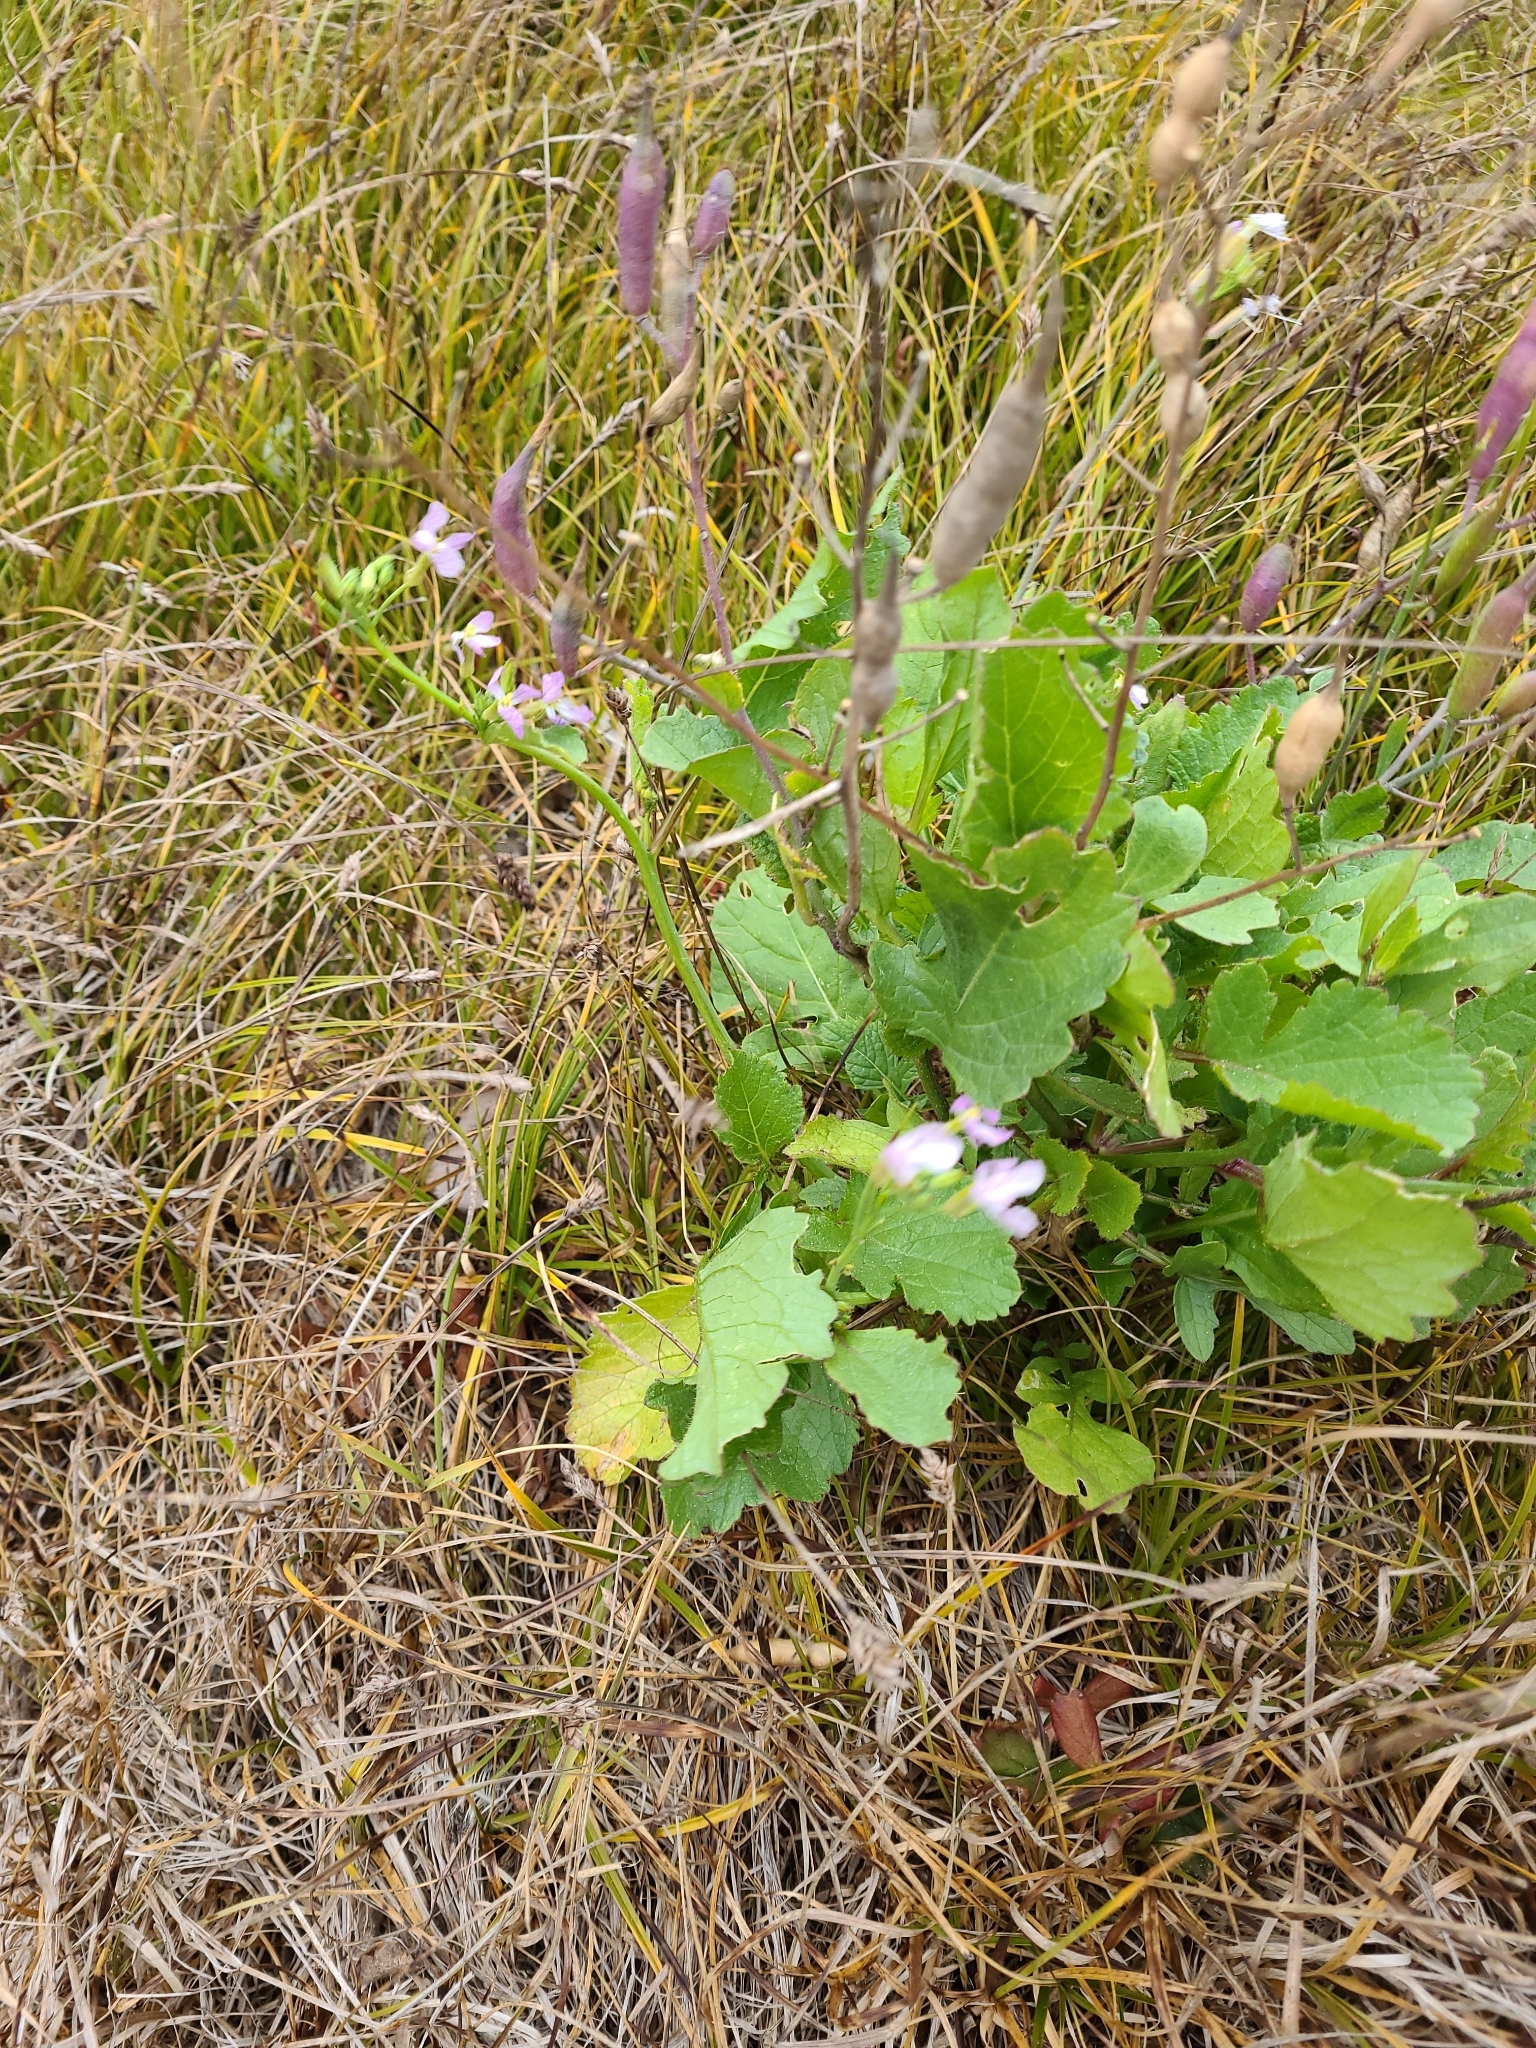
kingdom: Plantae
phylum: Tracheophyta
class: Magnoliopsida
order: Brassicales
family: Brassicaceae
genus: Raphanus
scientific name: Raphanus sativus
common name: Cultivated radish
